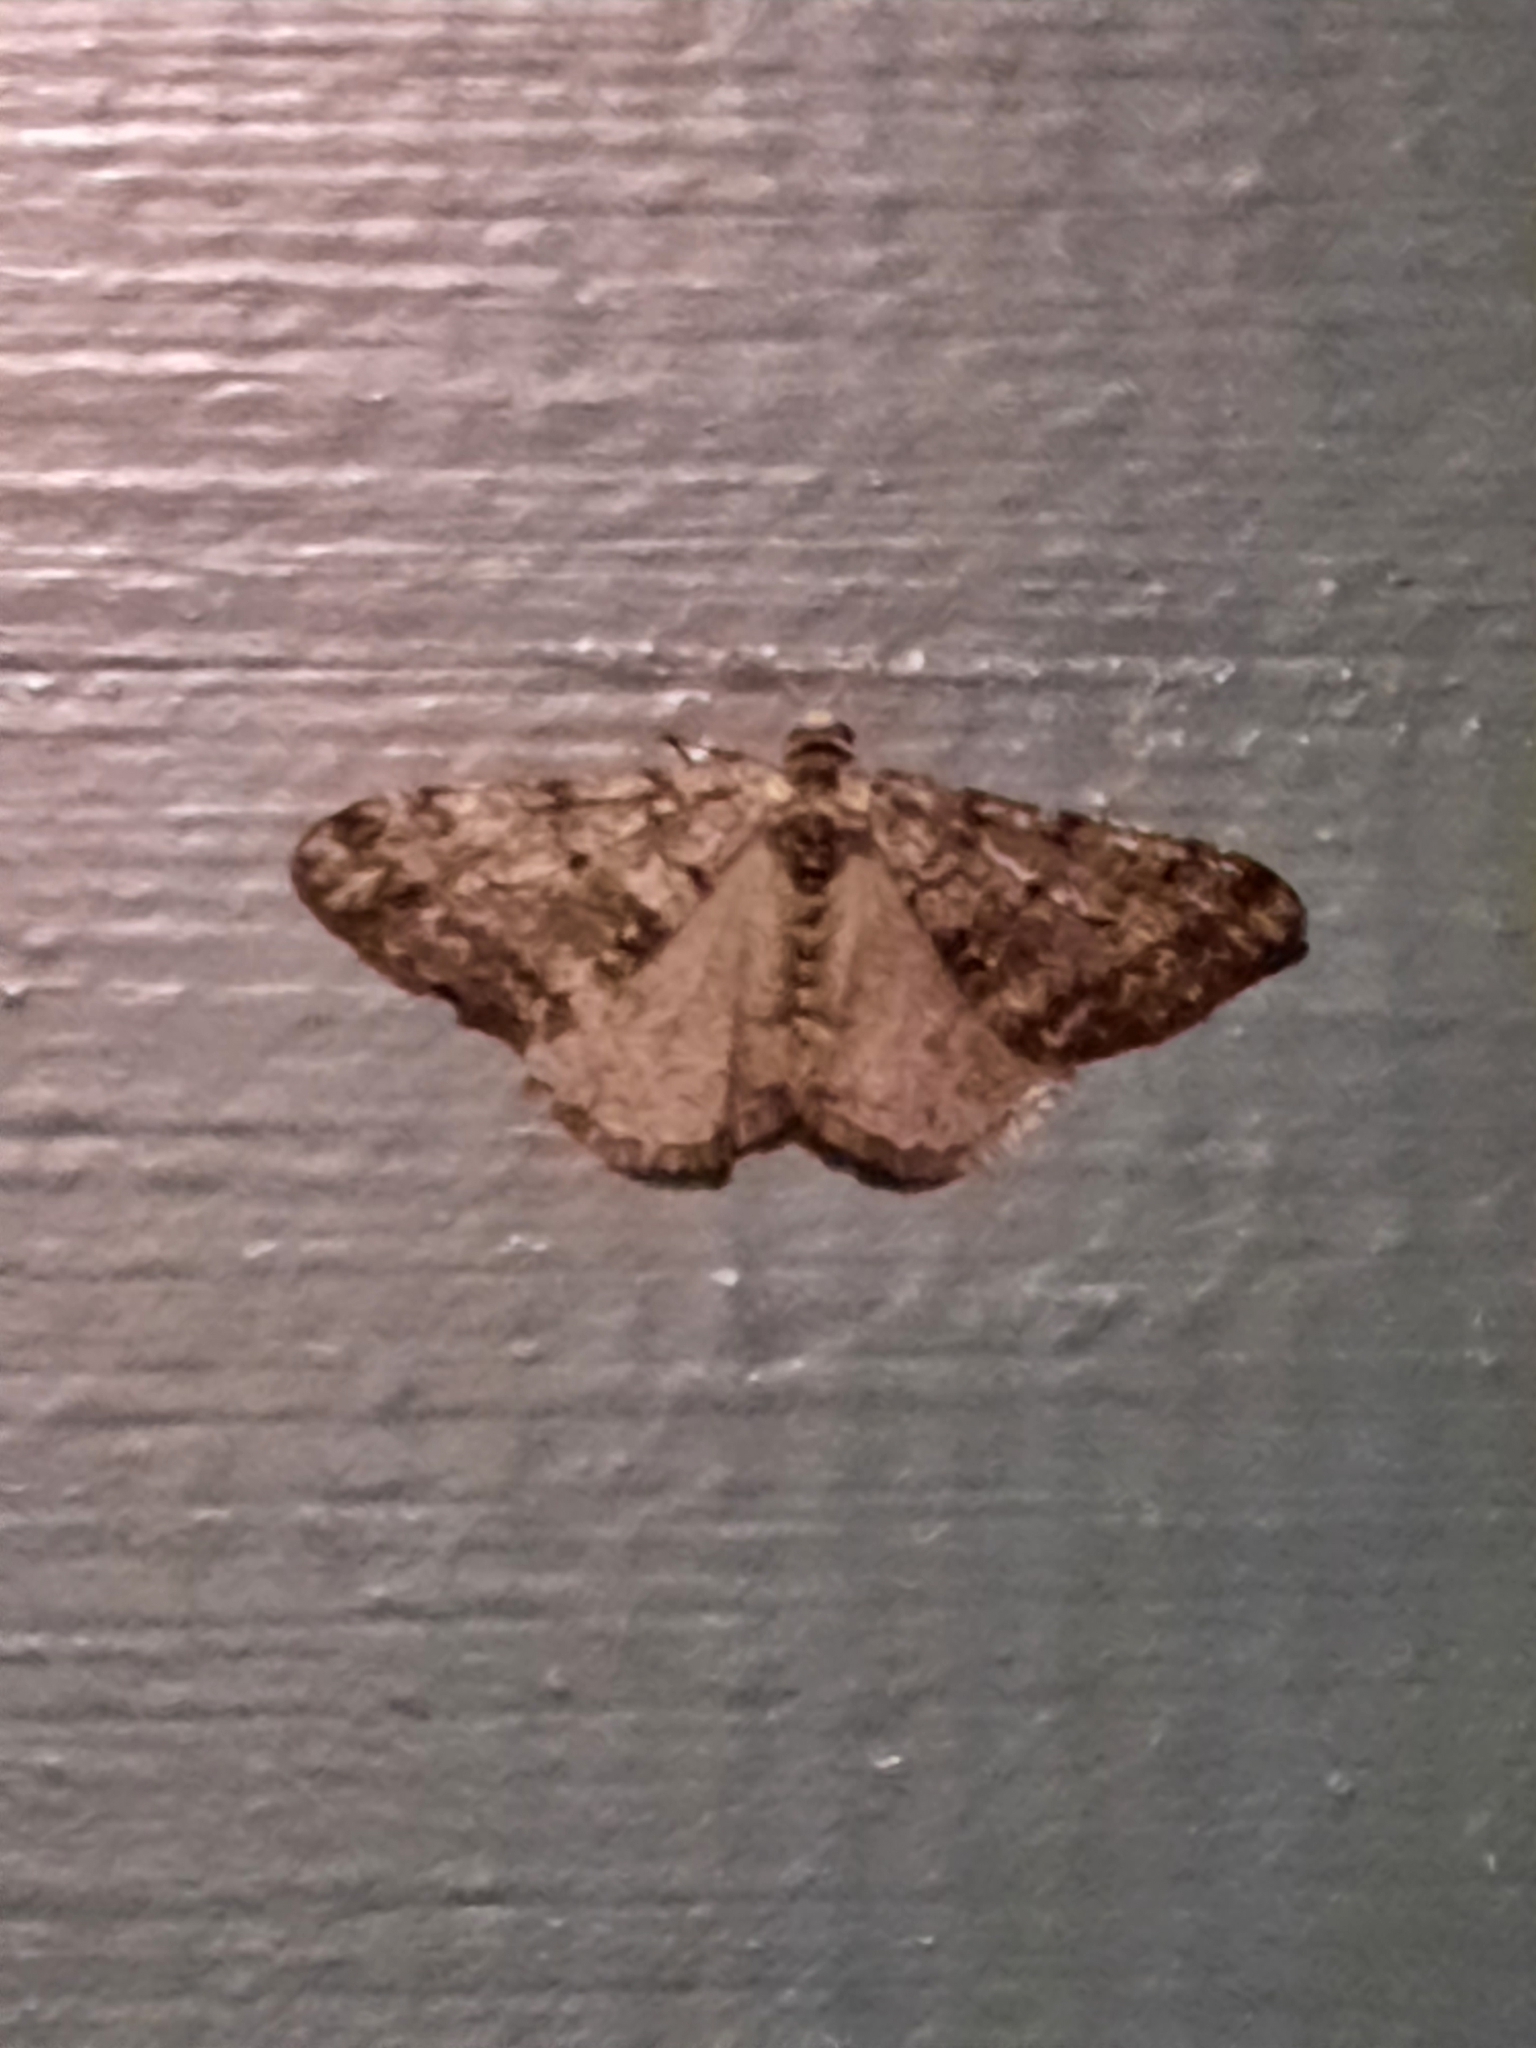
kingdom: Animalia
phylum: Arthropoda
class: Insecta
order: Lepidoptera
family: Geometridae
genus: Phigalia
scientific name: Phigalia strigataria
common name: Small phigalia
